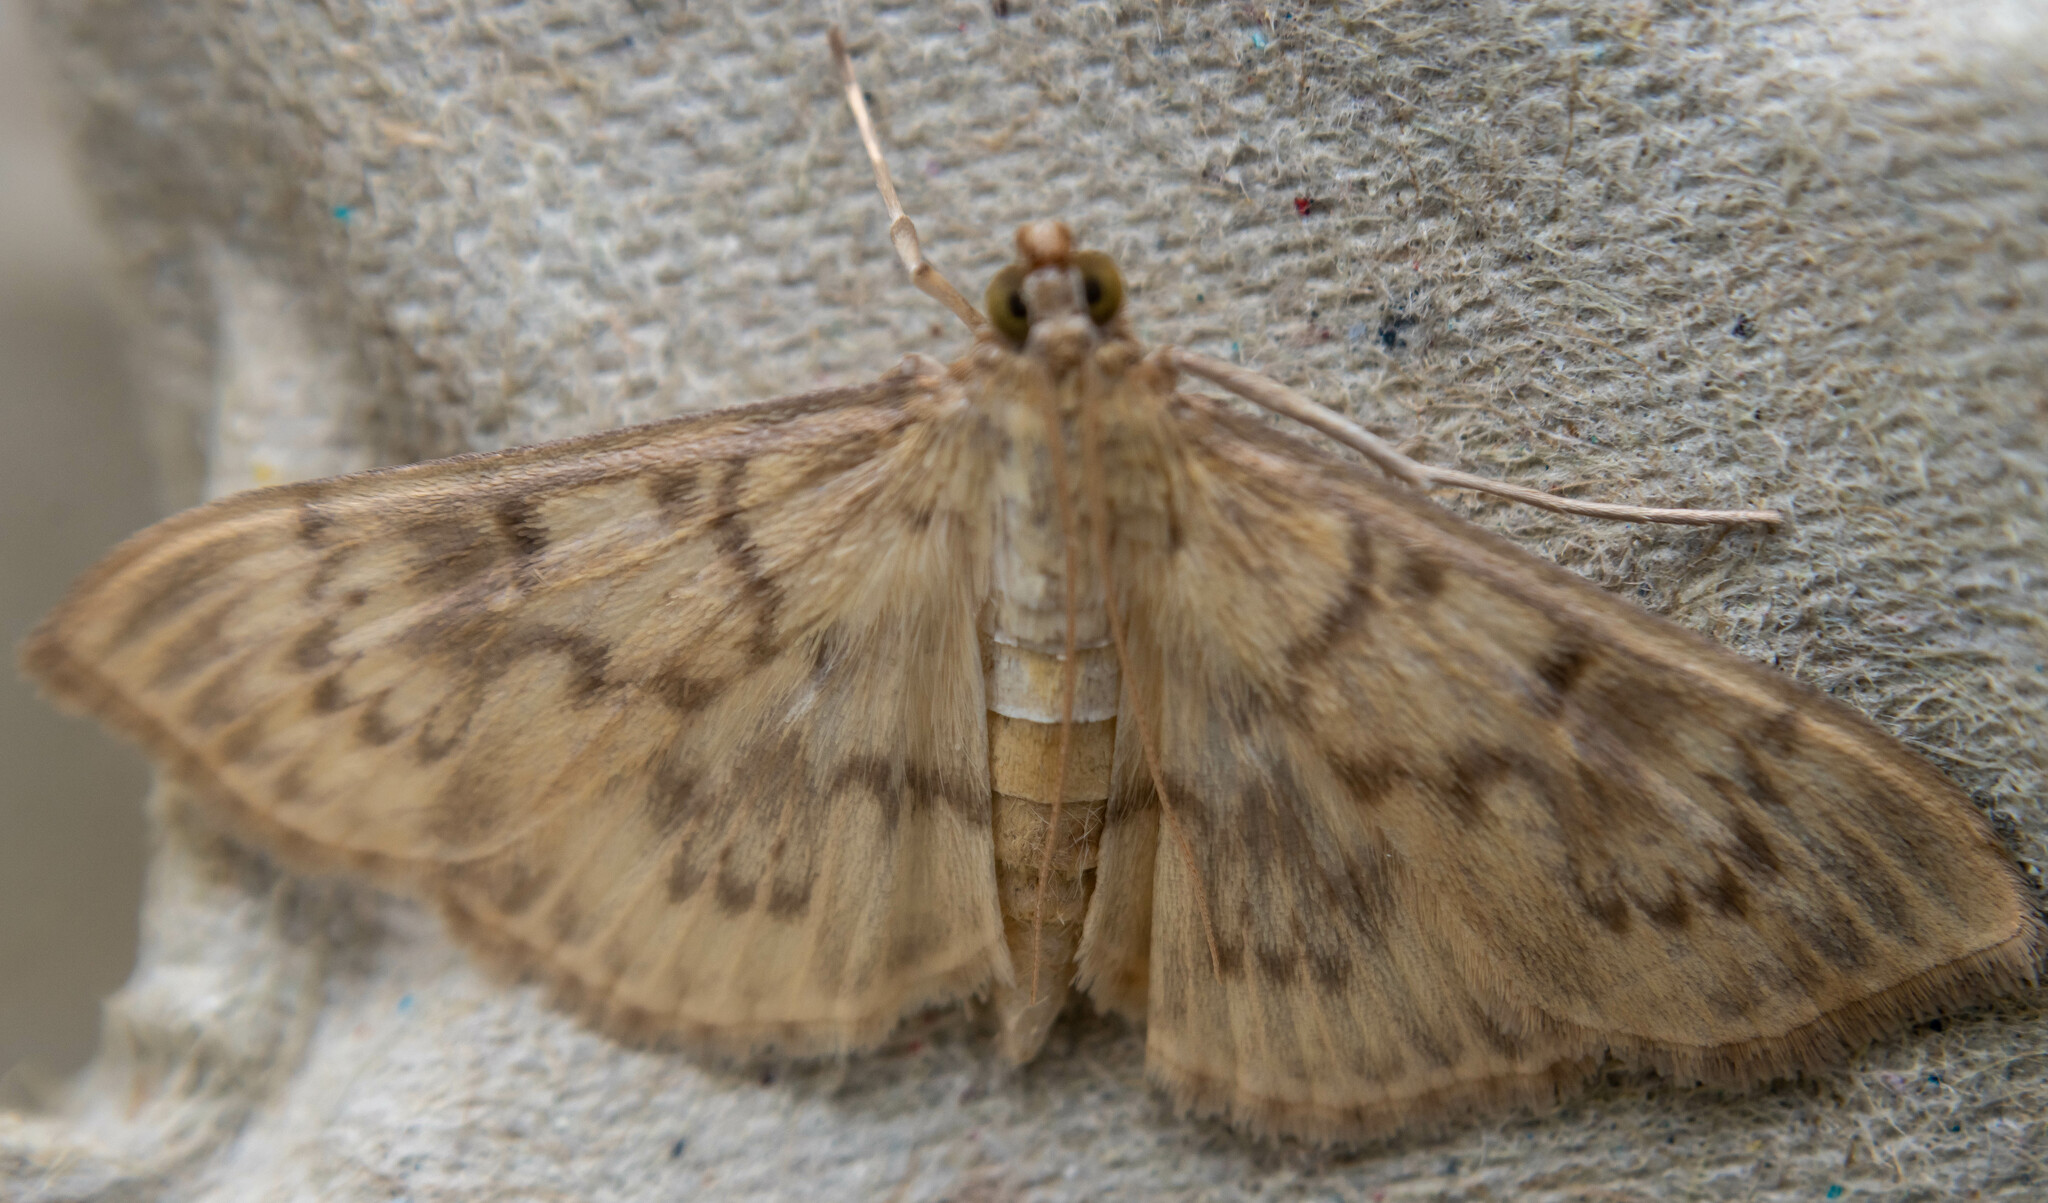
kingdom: Animalia
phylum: Arthropoda
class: Insecta
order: Lepidoptera
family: Crambidae
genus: Patania
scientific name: Patania ruralis
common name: Mother of pearl
